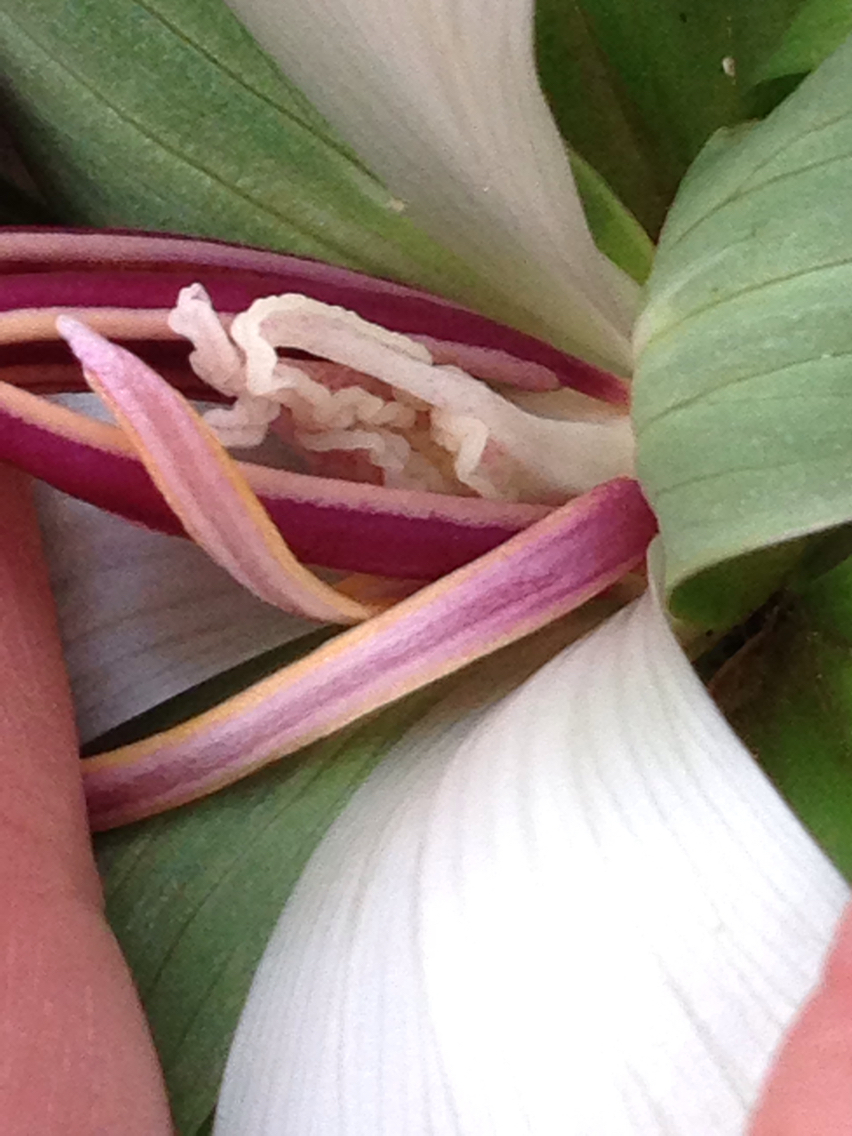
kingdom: Plantae
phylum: Tracheophyta
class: Liliopsida
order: Liliales
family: Melanthiaceae
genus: Trillium
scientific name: Trillium chloropetalum
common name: Giant trillium
